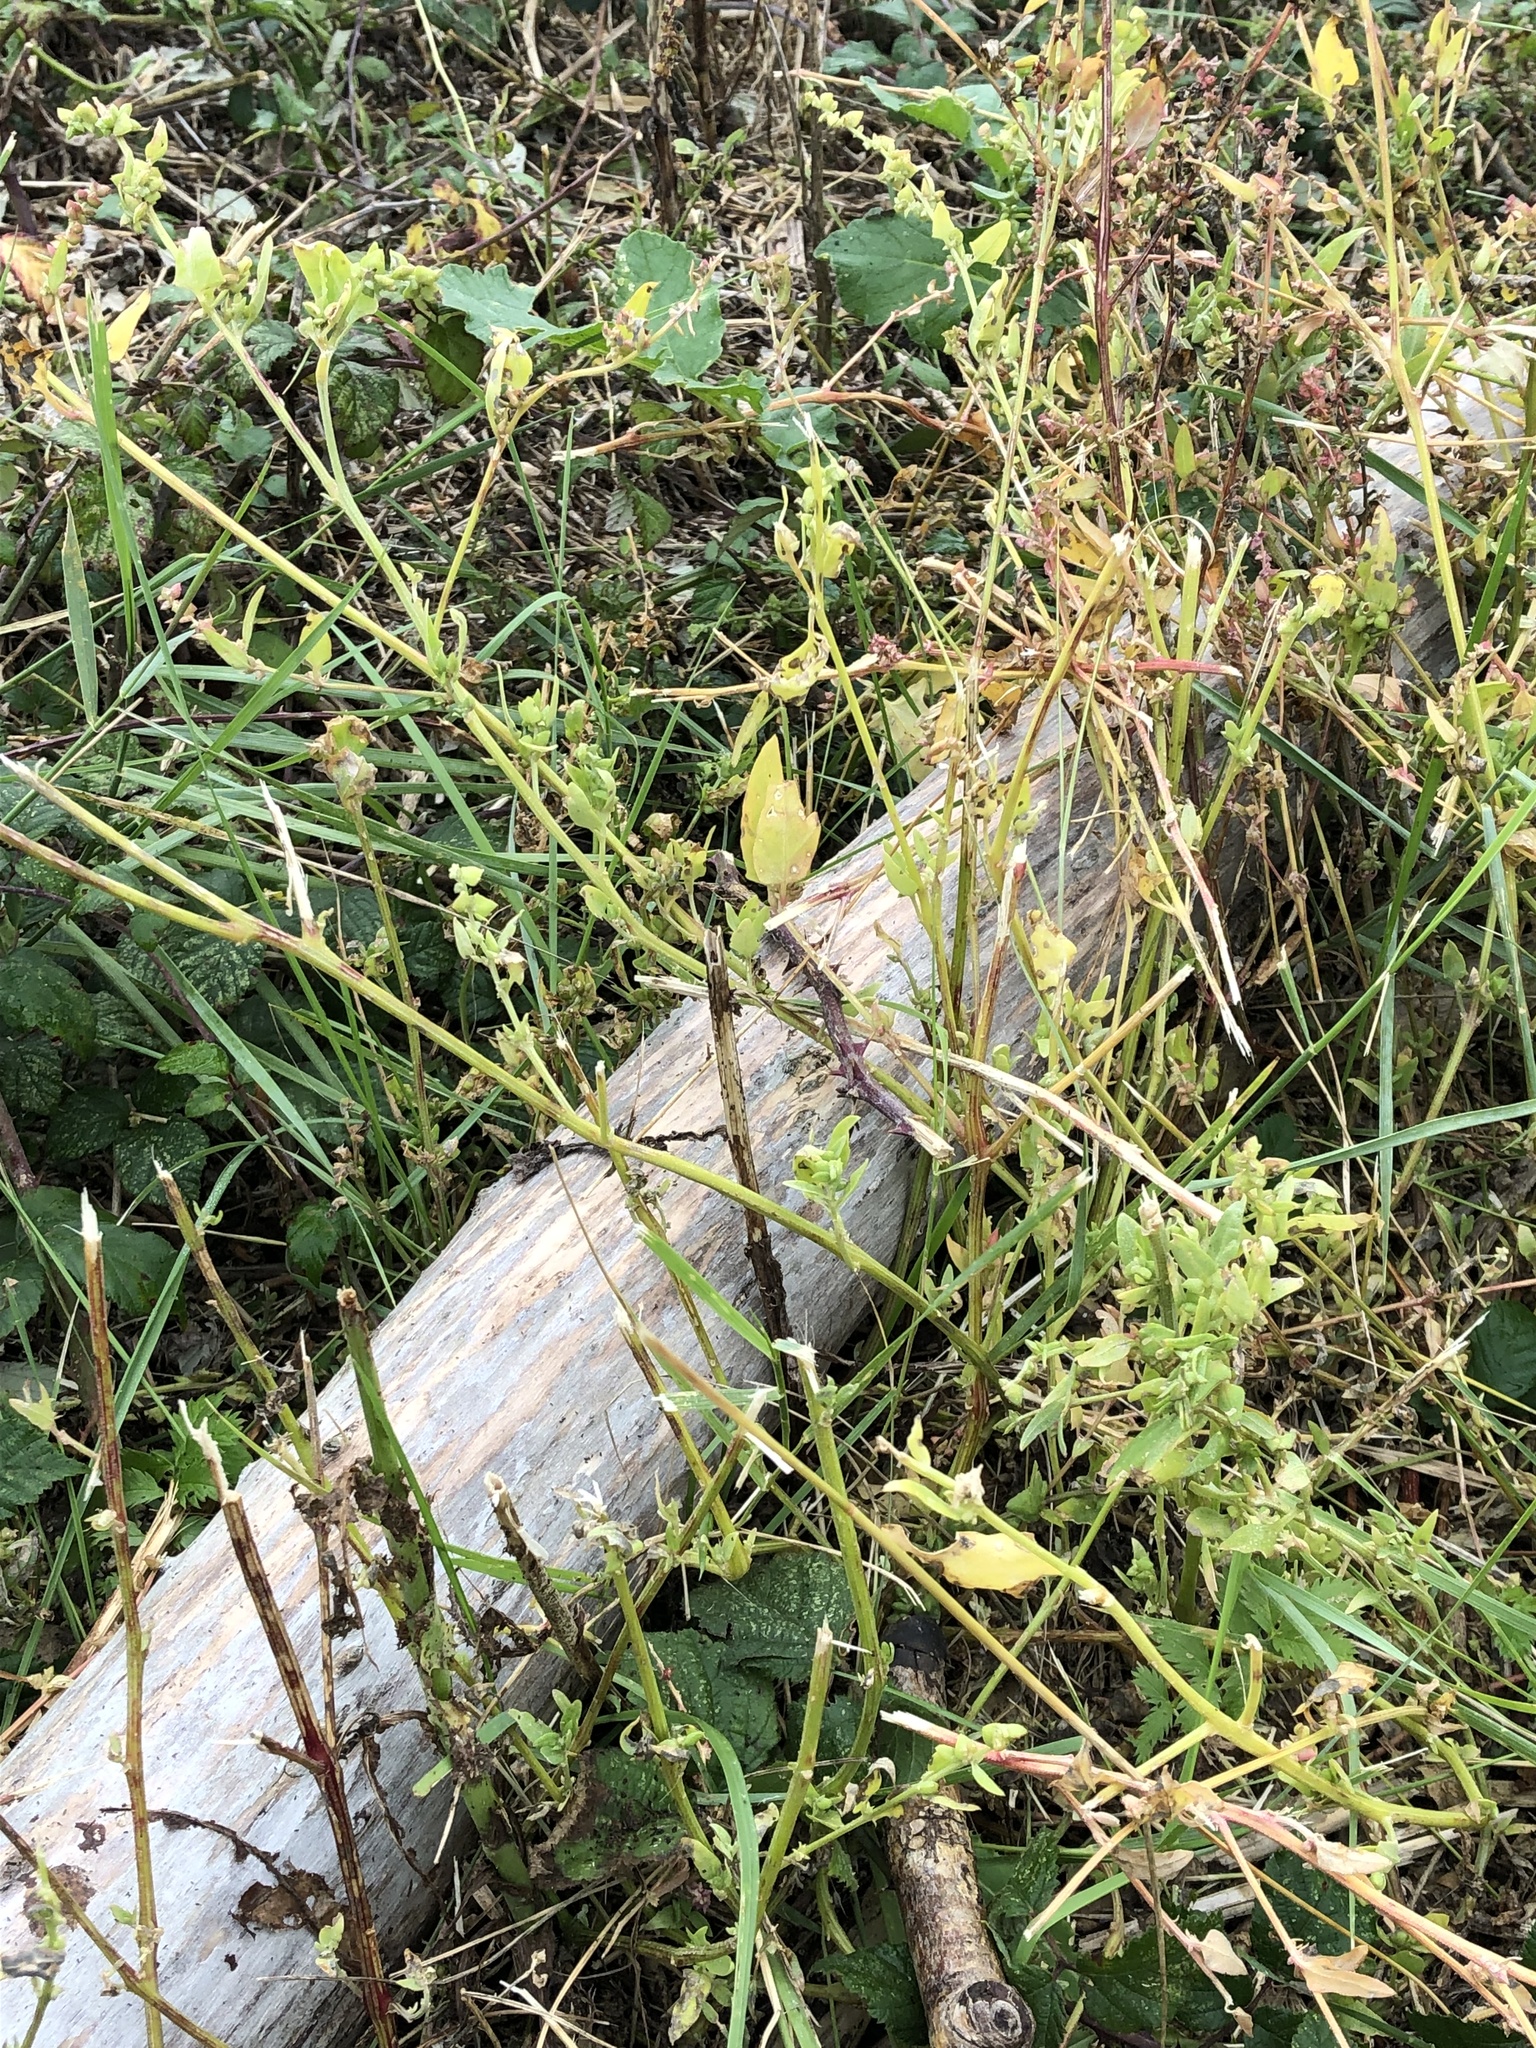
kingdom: Plantae
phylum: Tracheophyta
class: Magnoliopsida
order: Caryophyllales
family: Amaranthaceae
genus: Atriplex
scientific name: Atriplex prostrata
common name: Spear-leaved orache
